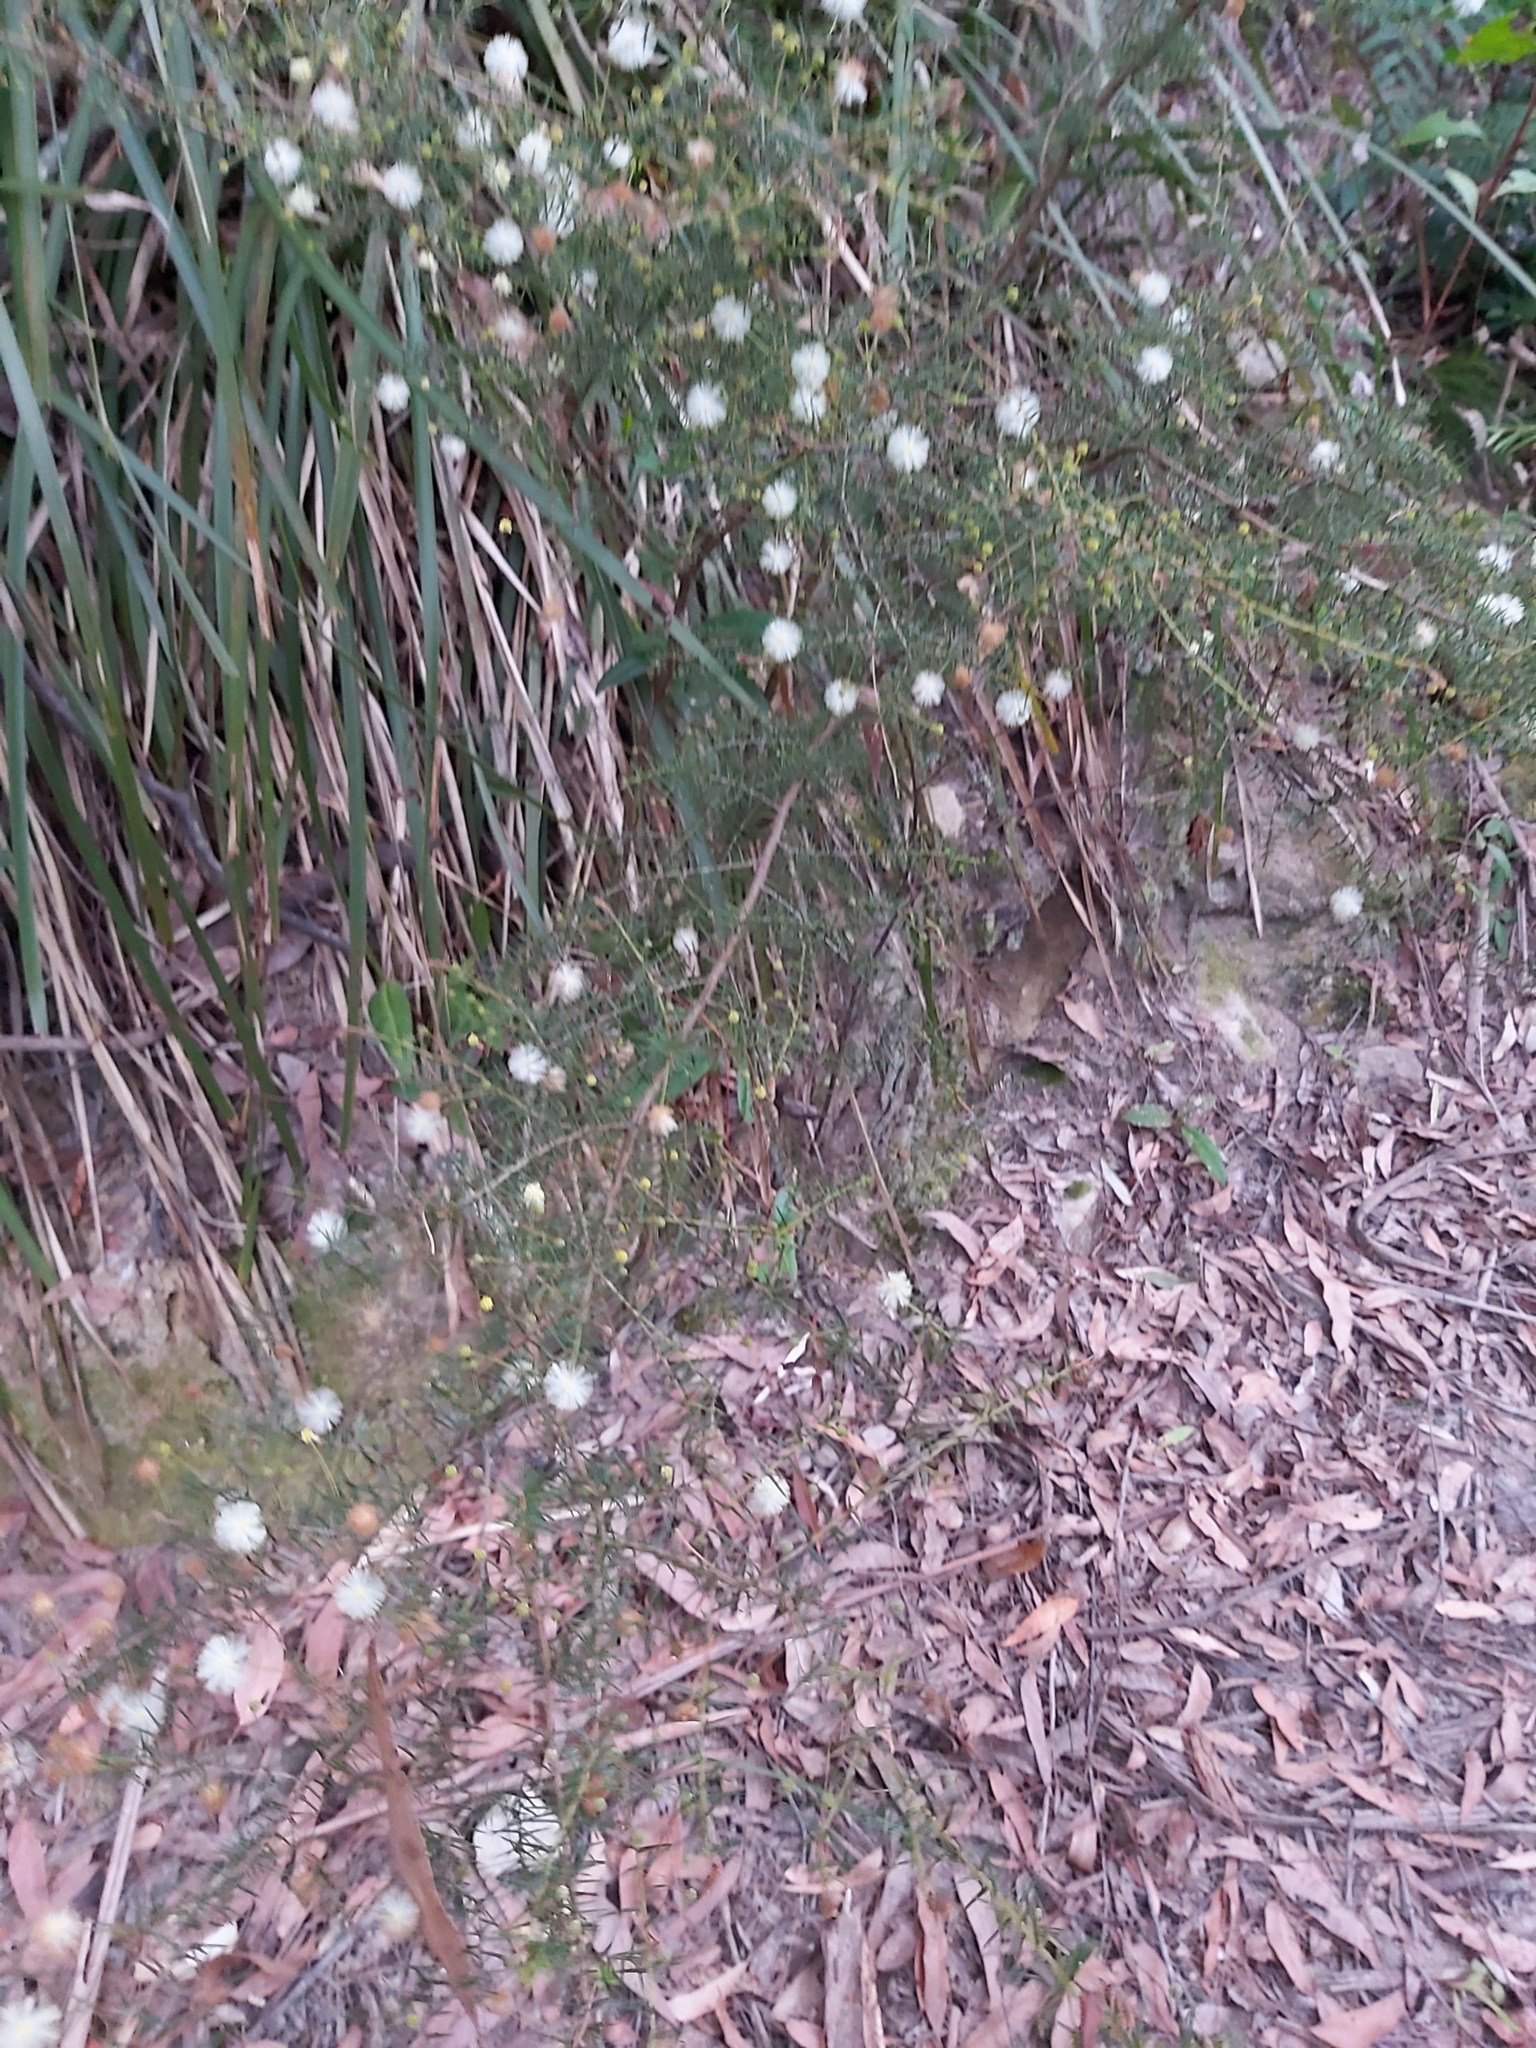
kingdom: Plantae
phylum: Tracheophyta
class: Magnoliopsida
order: Fabales
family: Fabaceae
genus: Acacia
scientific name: Acacia ulicifolia
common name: Juniper wattle
